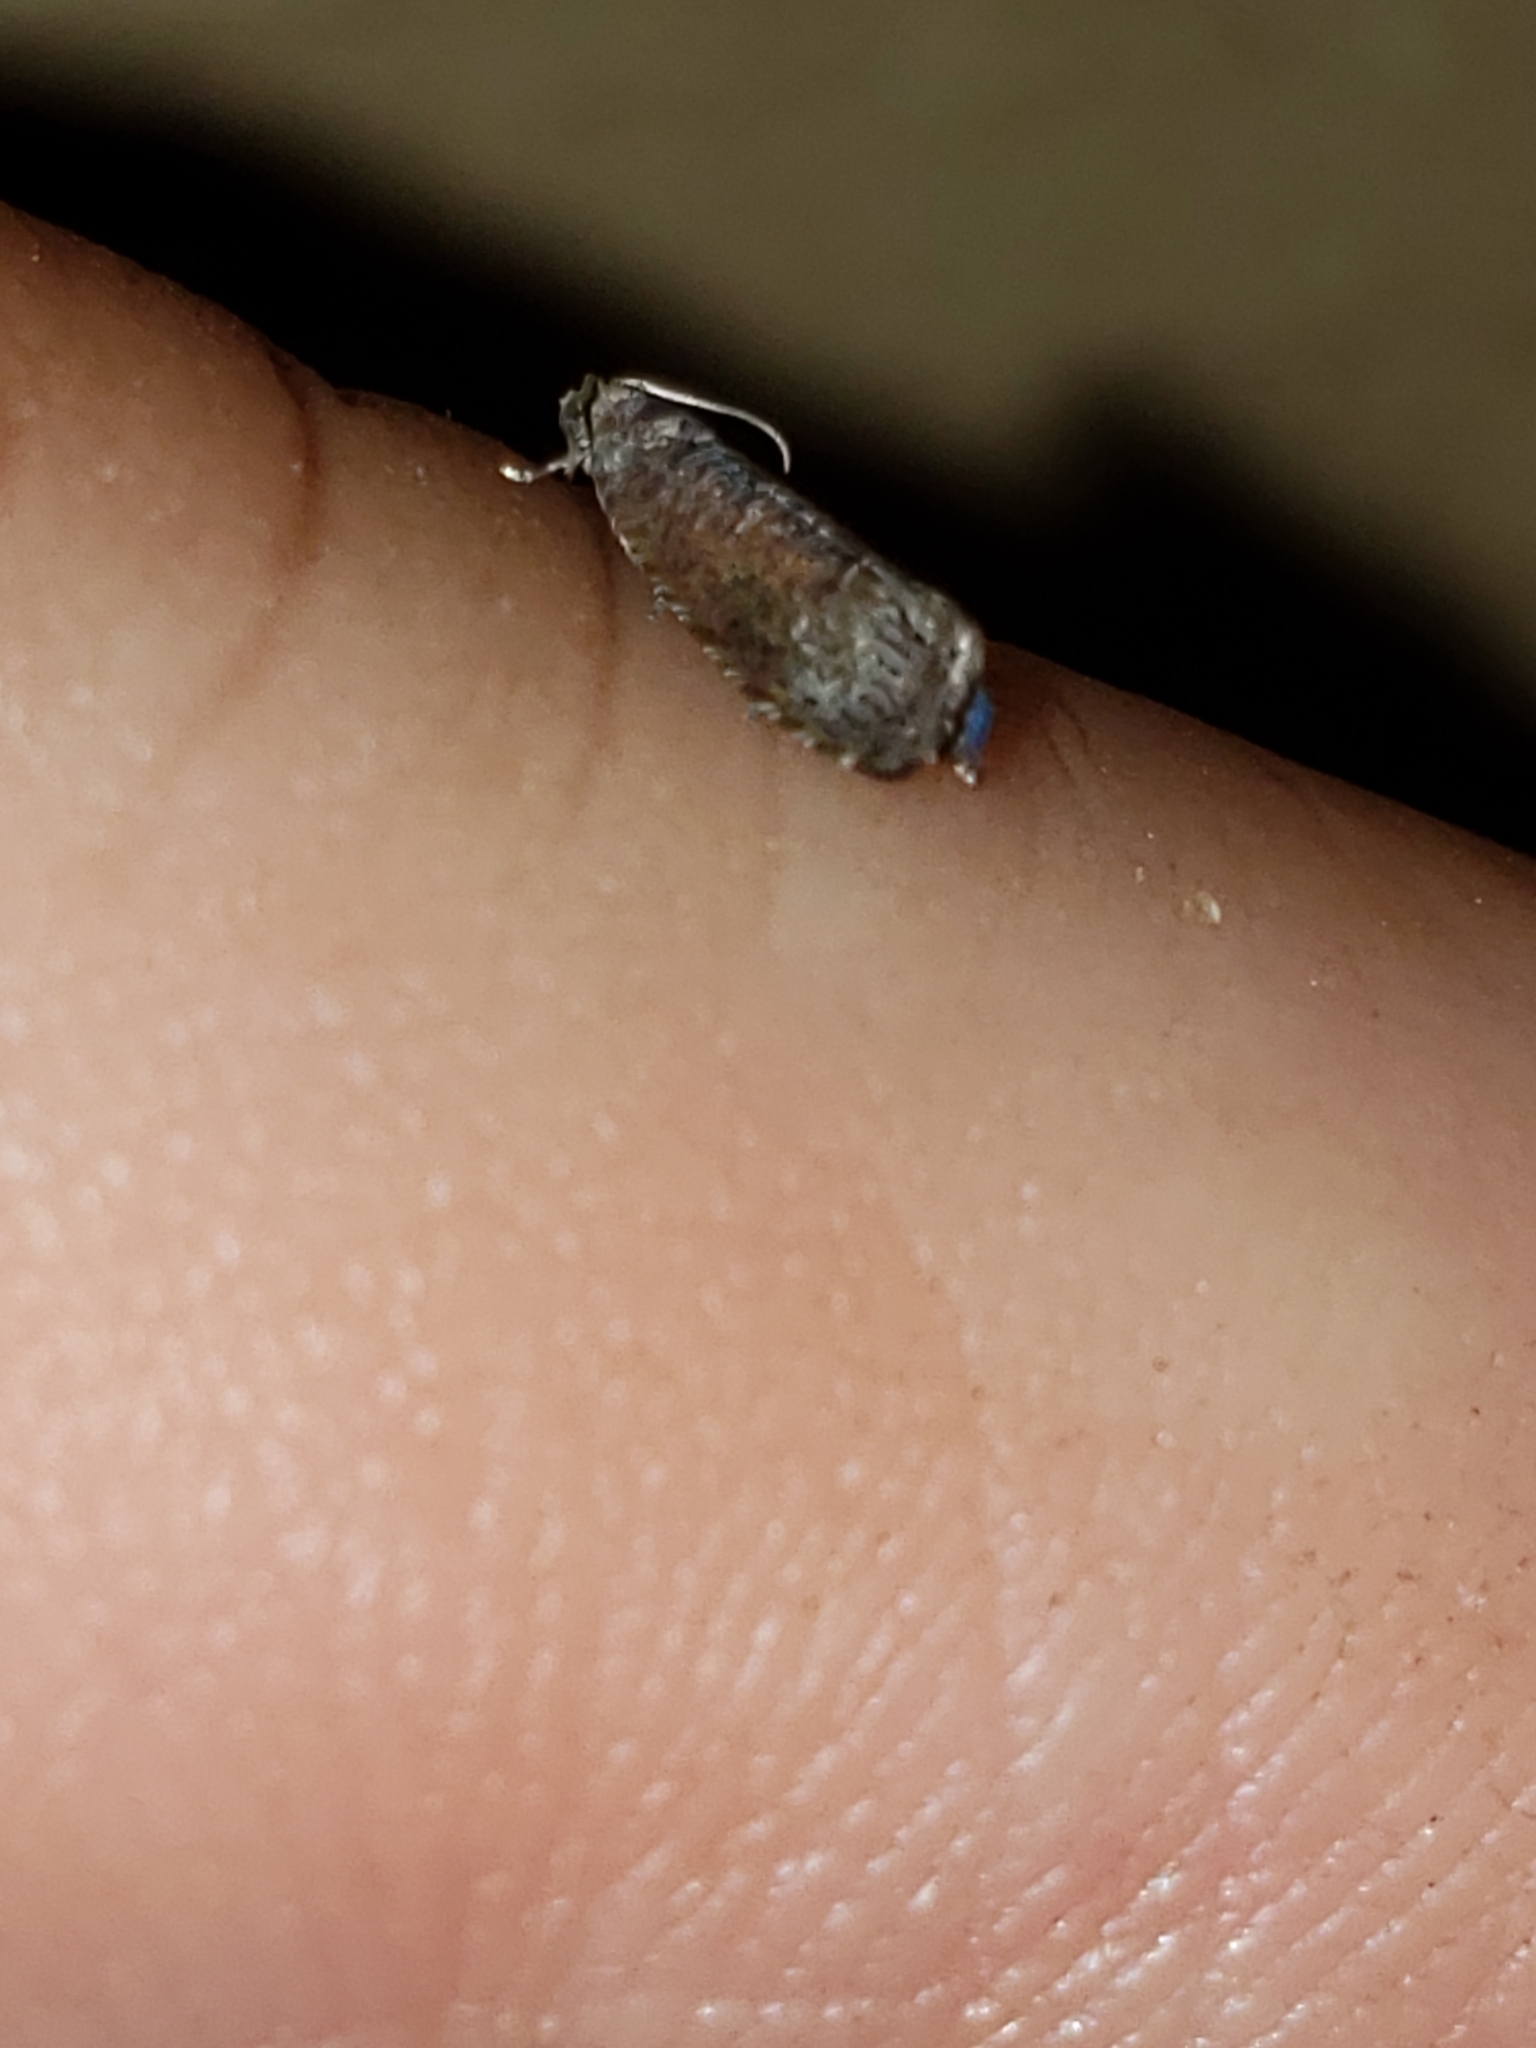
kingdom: Animalia
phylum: Arthropoda
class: Insecta
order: Lepidoptera
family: Noctuidae
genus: Aspila
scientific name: Aspila
